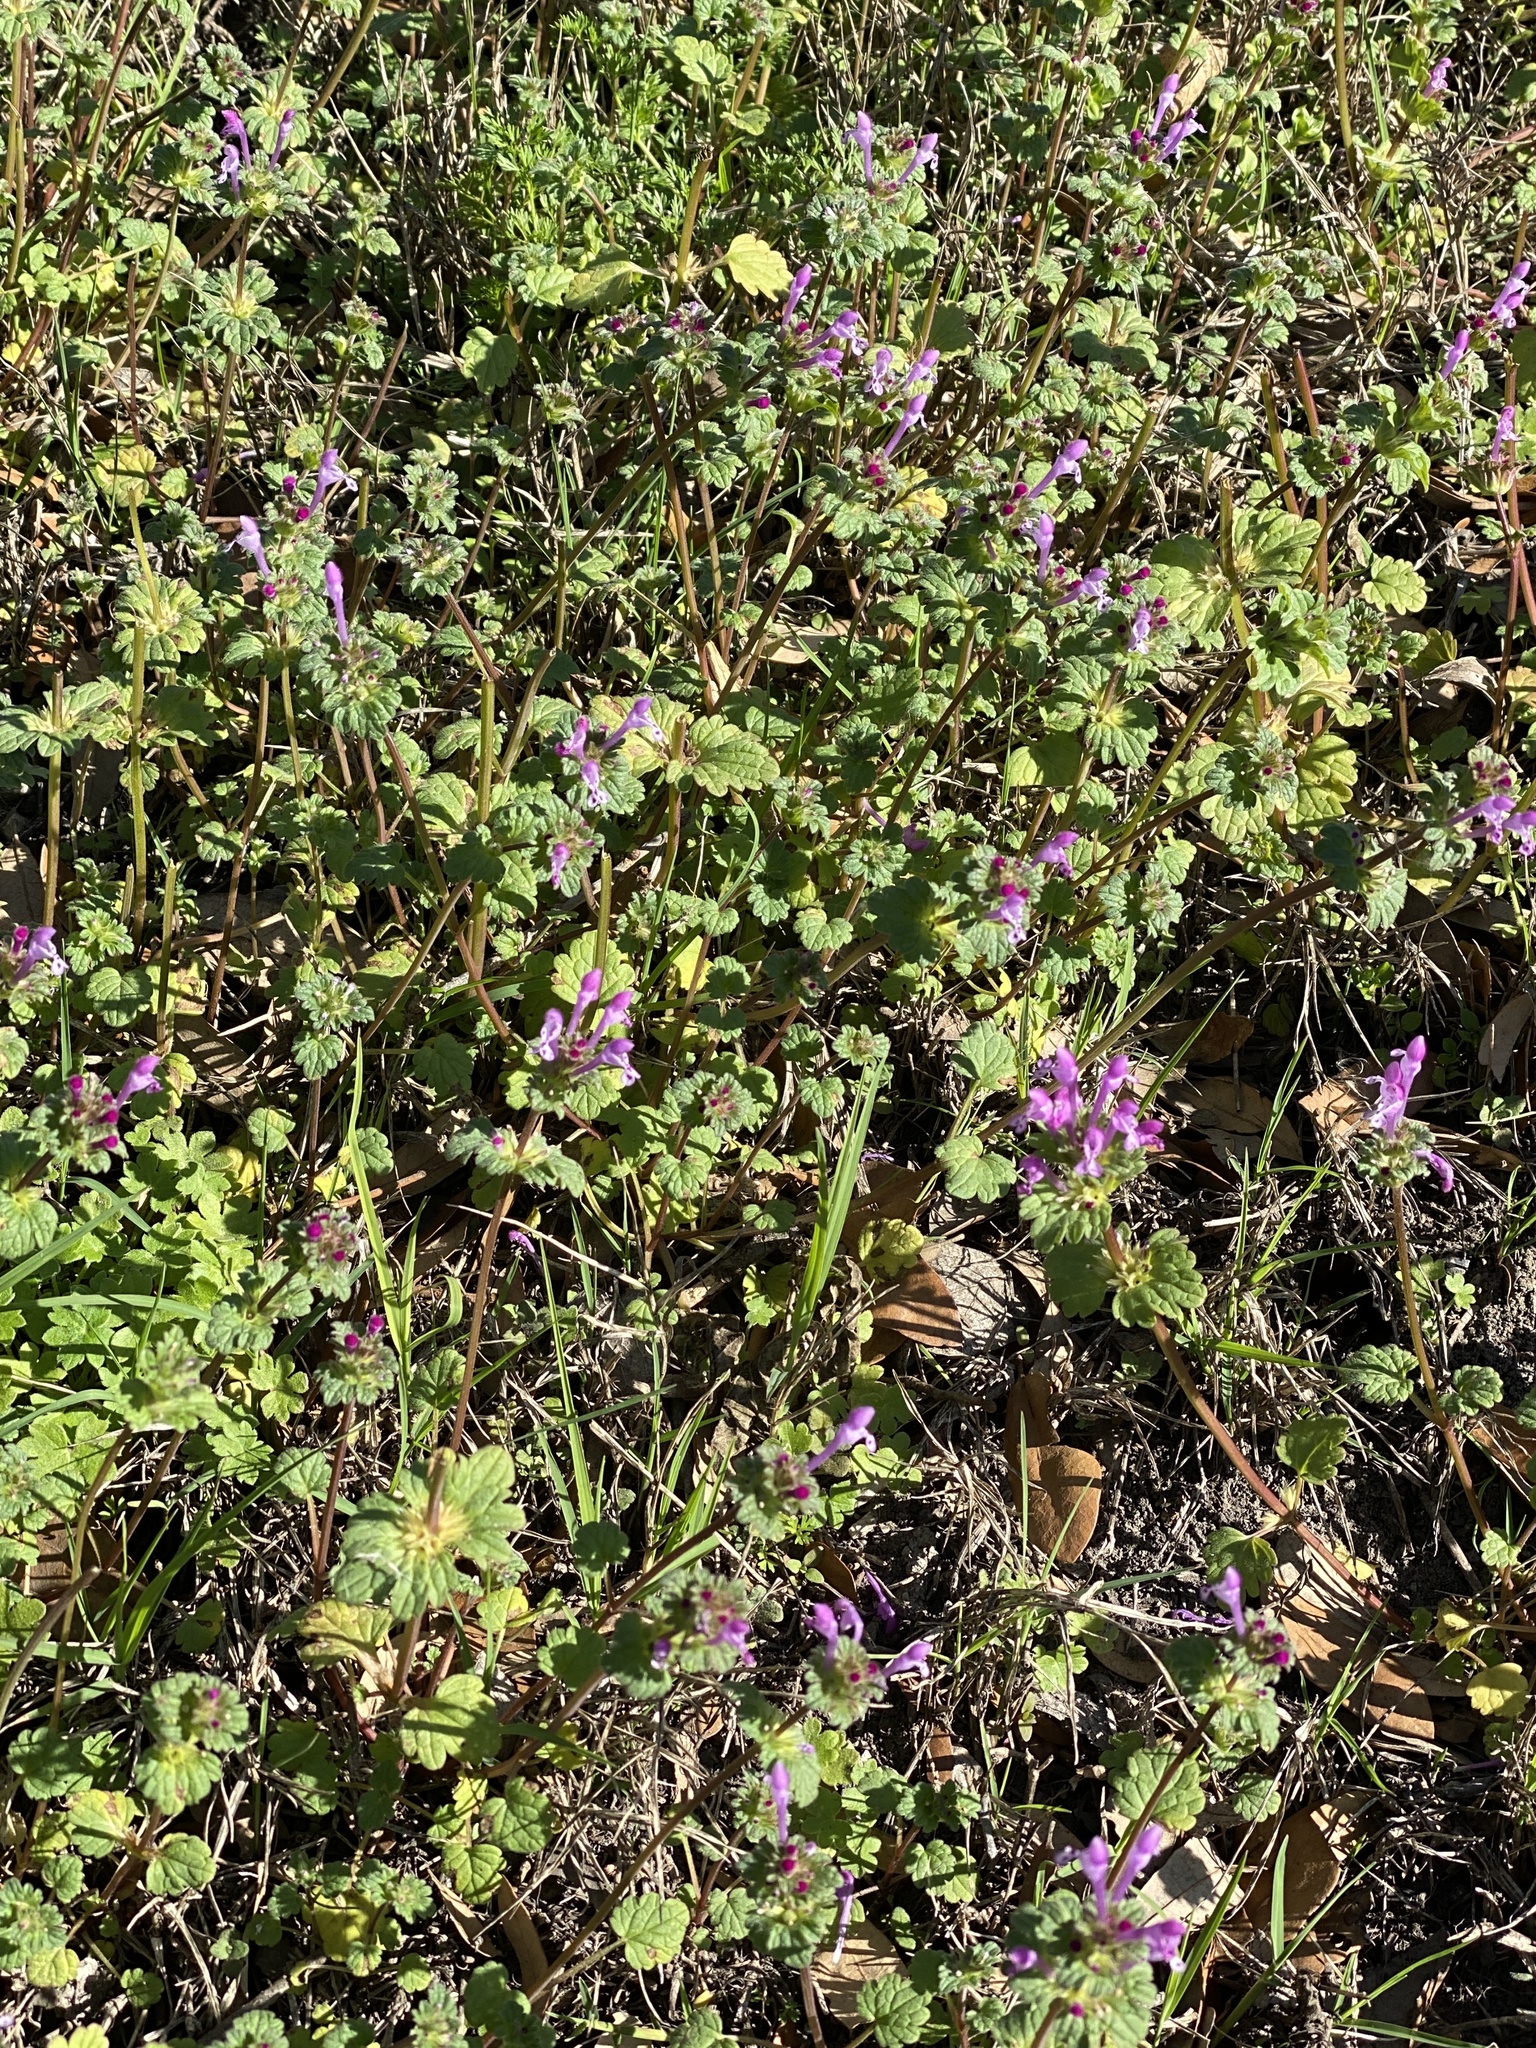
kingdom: Plantae
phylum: Tracheophyta
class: Magnoliopsida
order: Lamiales
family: Lamiaceae
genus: Lamium
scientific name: Lamium amplexicaule
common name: Henbit dead-nettle
